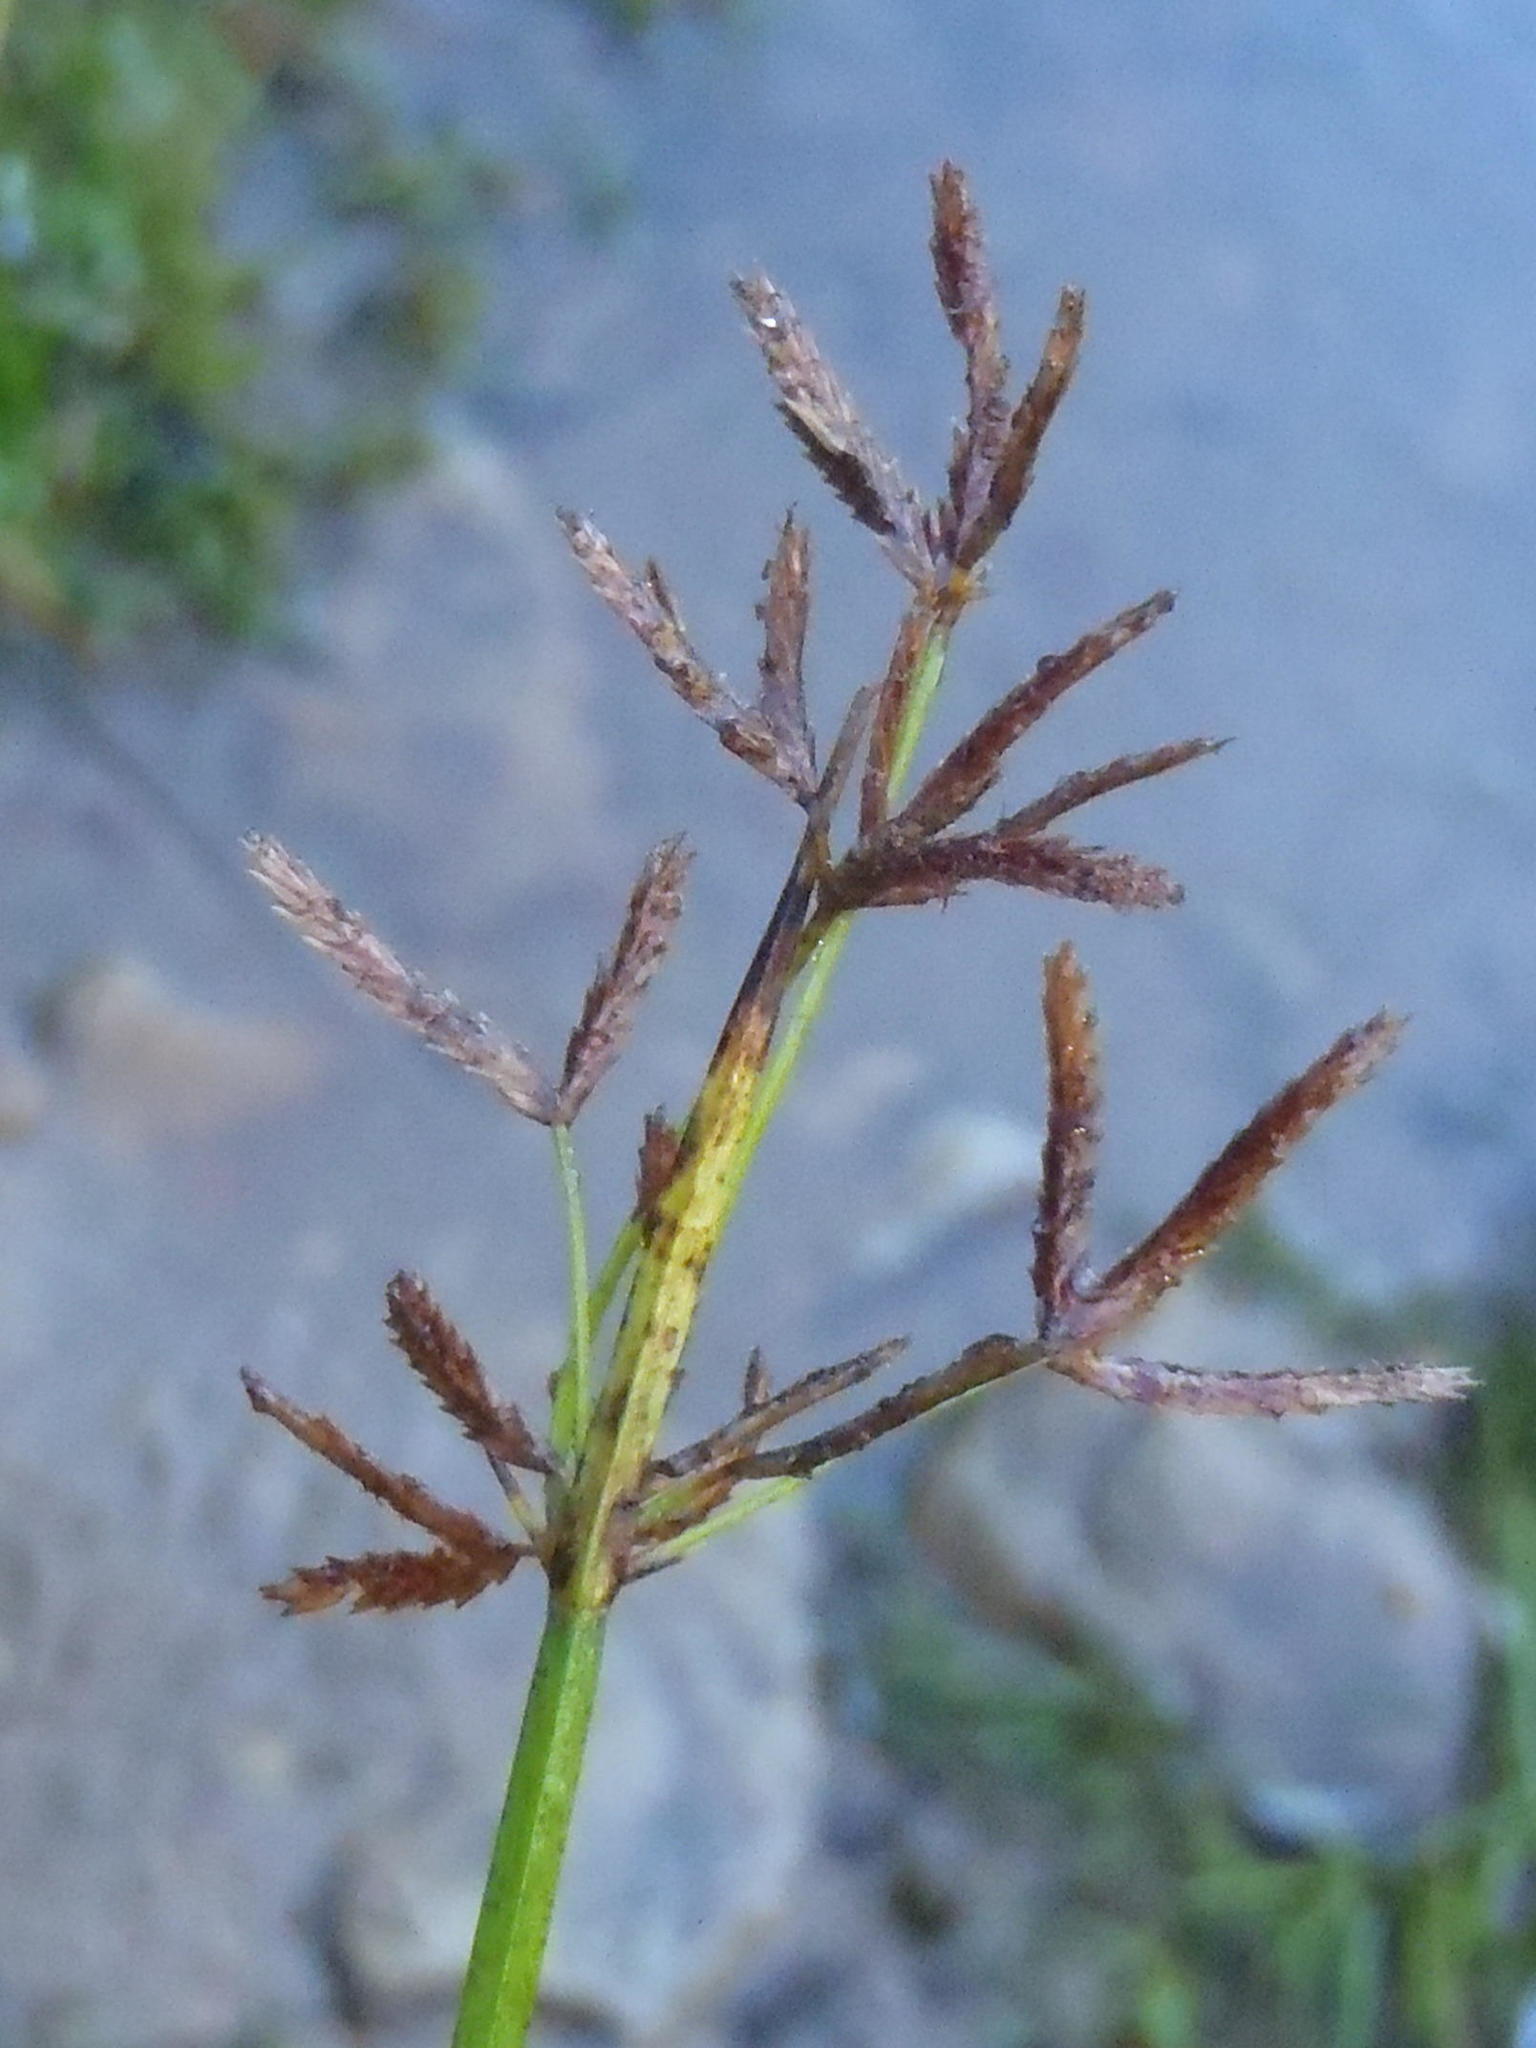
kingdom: Plantae
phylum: Tracheophyta
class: Liliopsida
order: Poales
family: Cyperaceae
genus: Cyperus
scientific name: Cyperus denudatus
